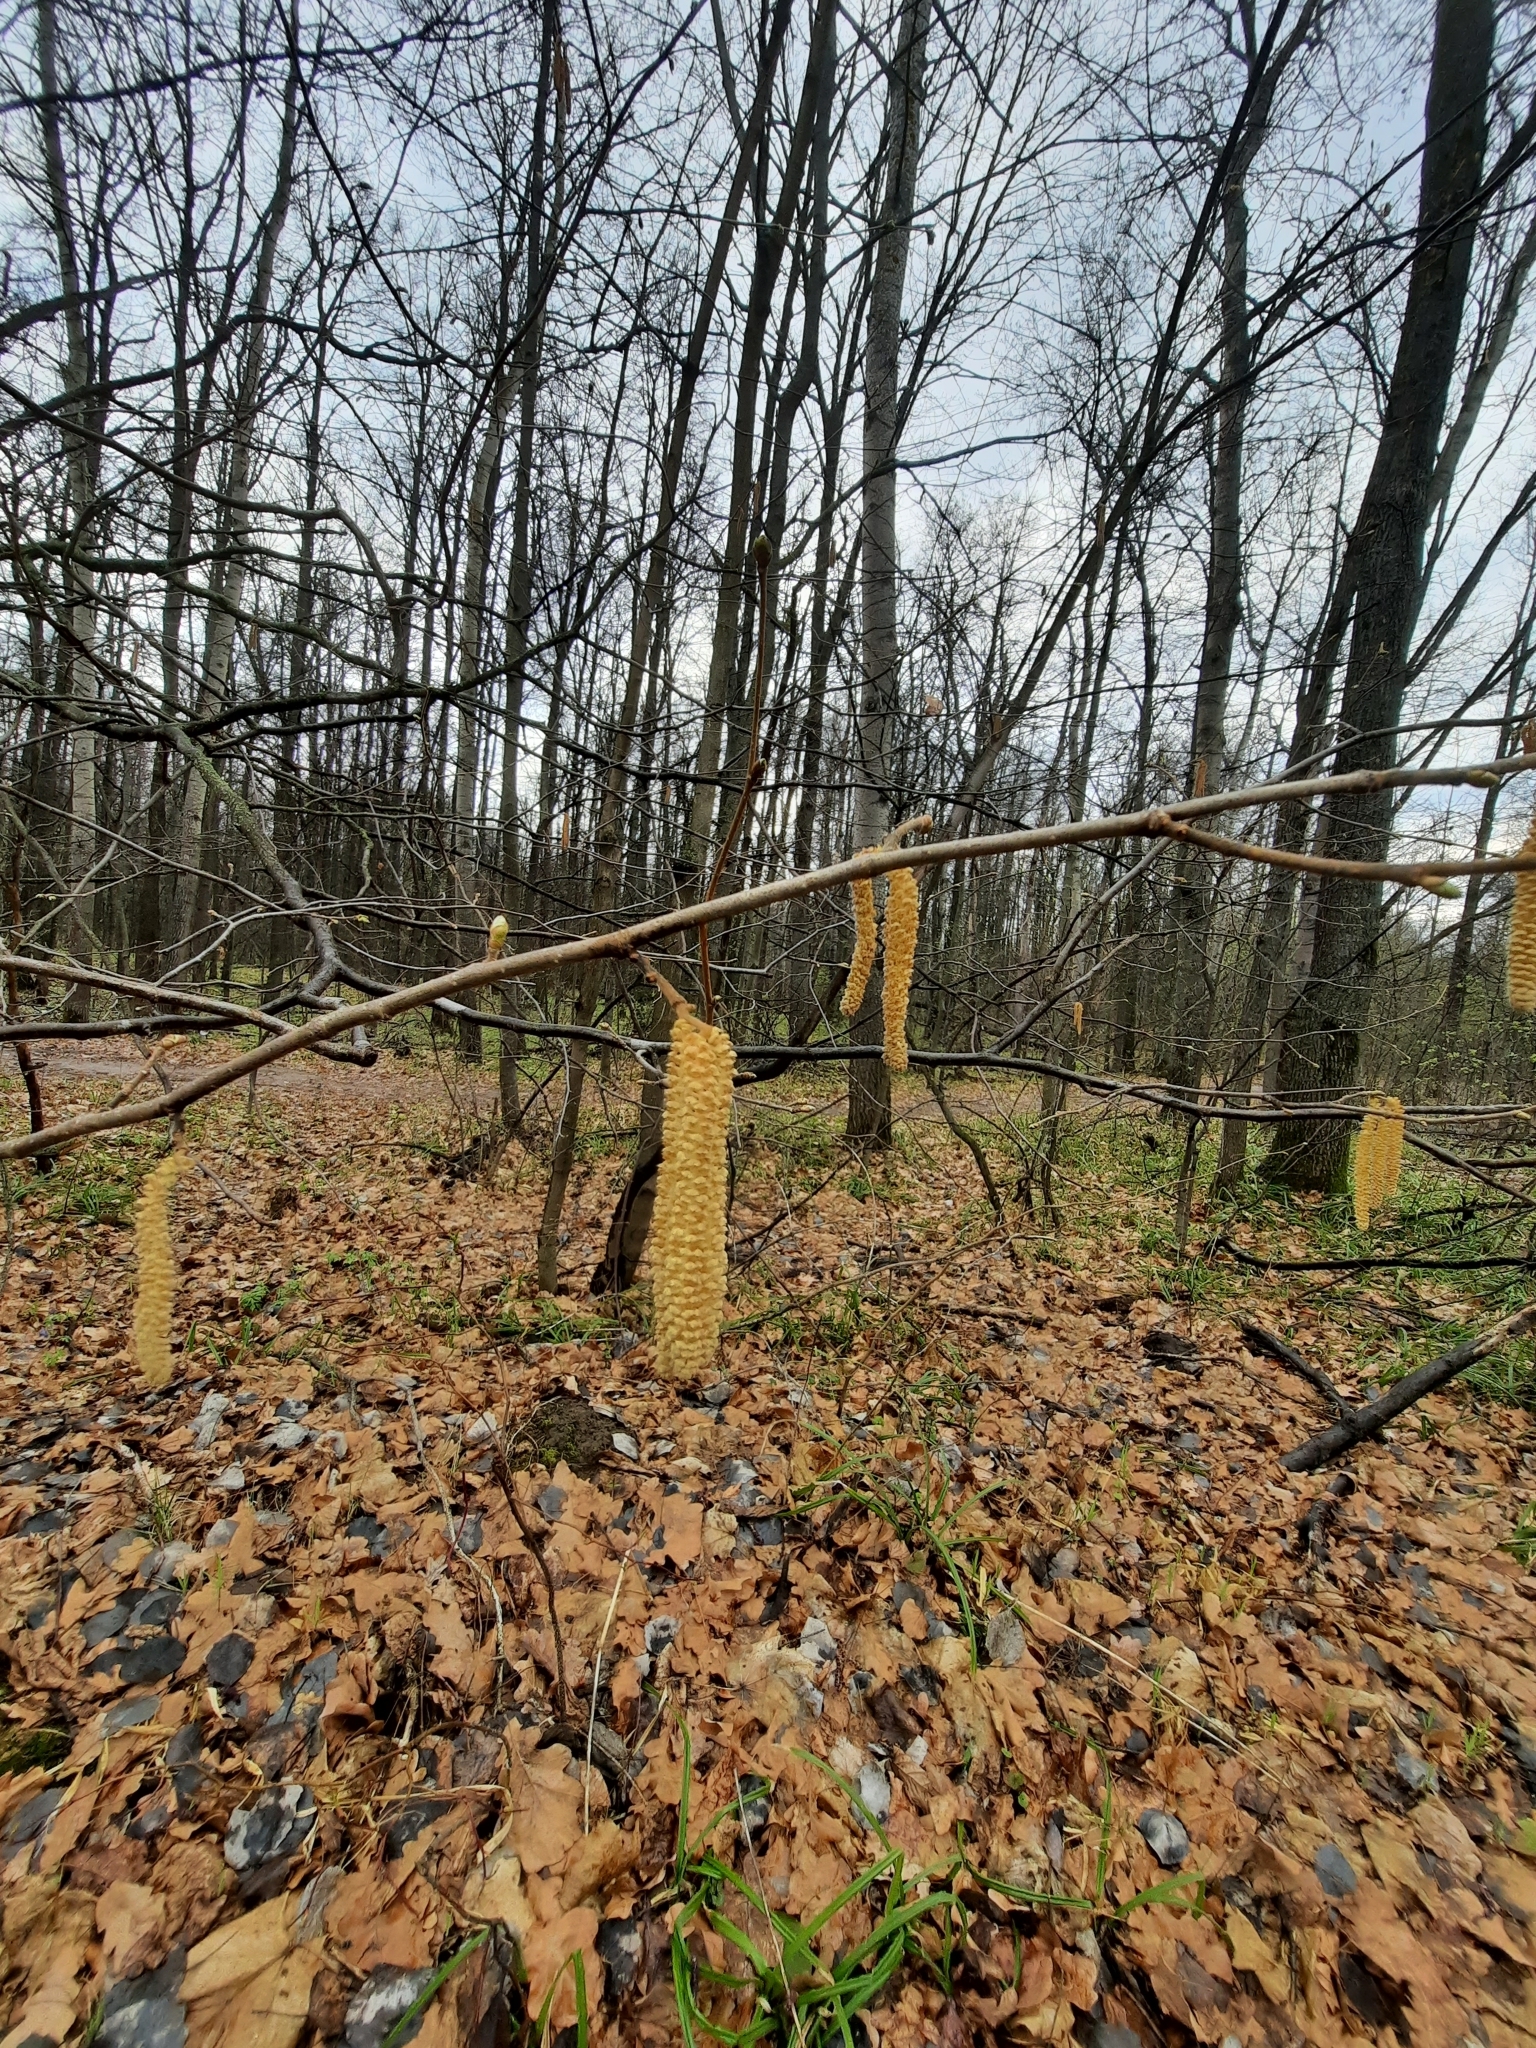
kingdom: Plantae
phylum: Tracheophyta
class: Magnoliopsida
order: Fagales
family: Betulaceae
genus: Corylus
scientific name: Corylus avellana
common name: European hazel
